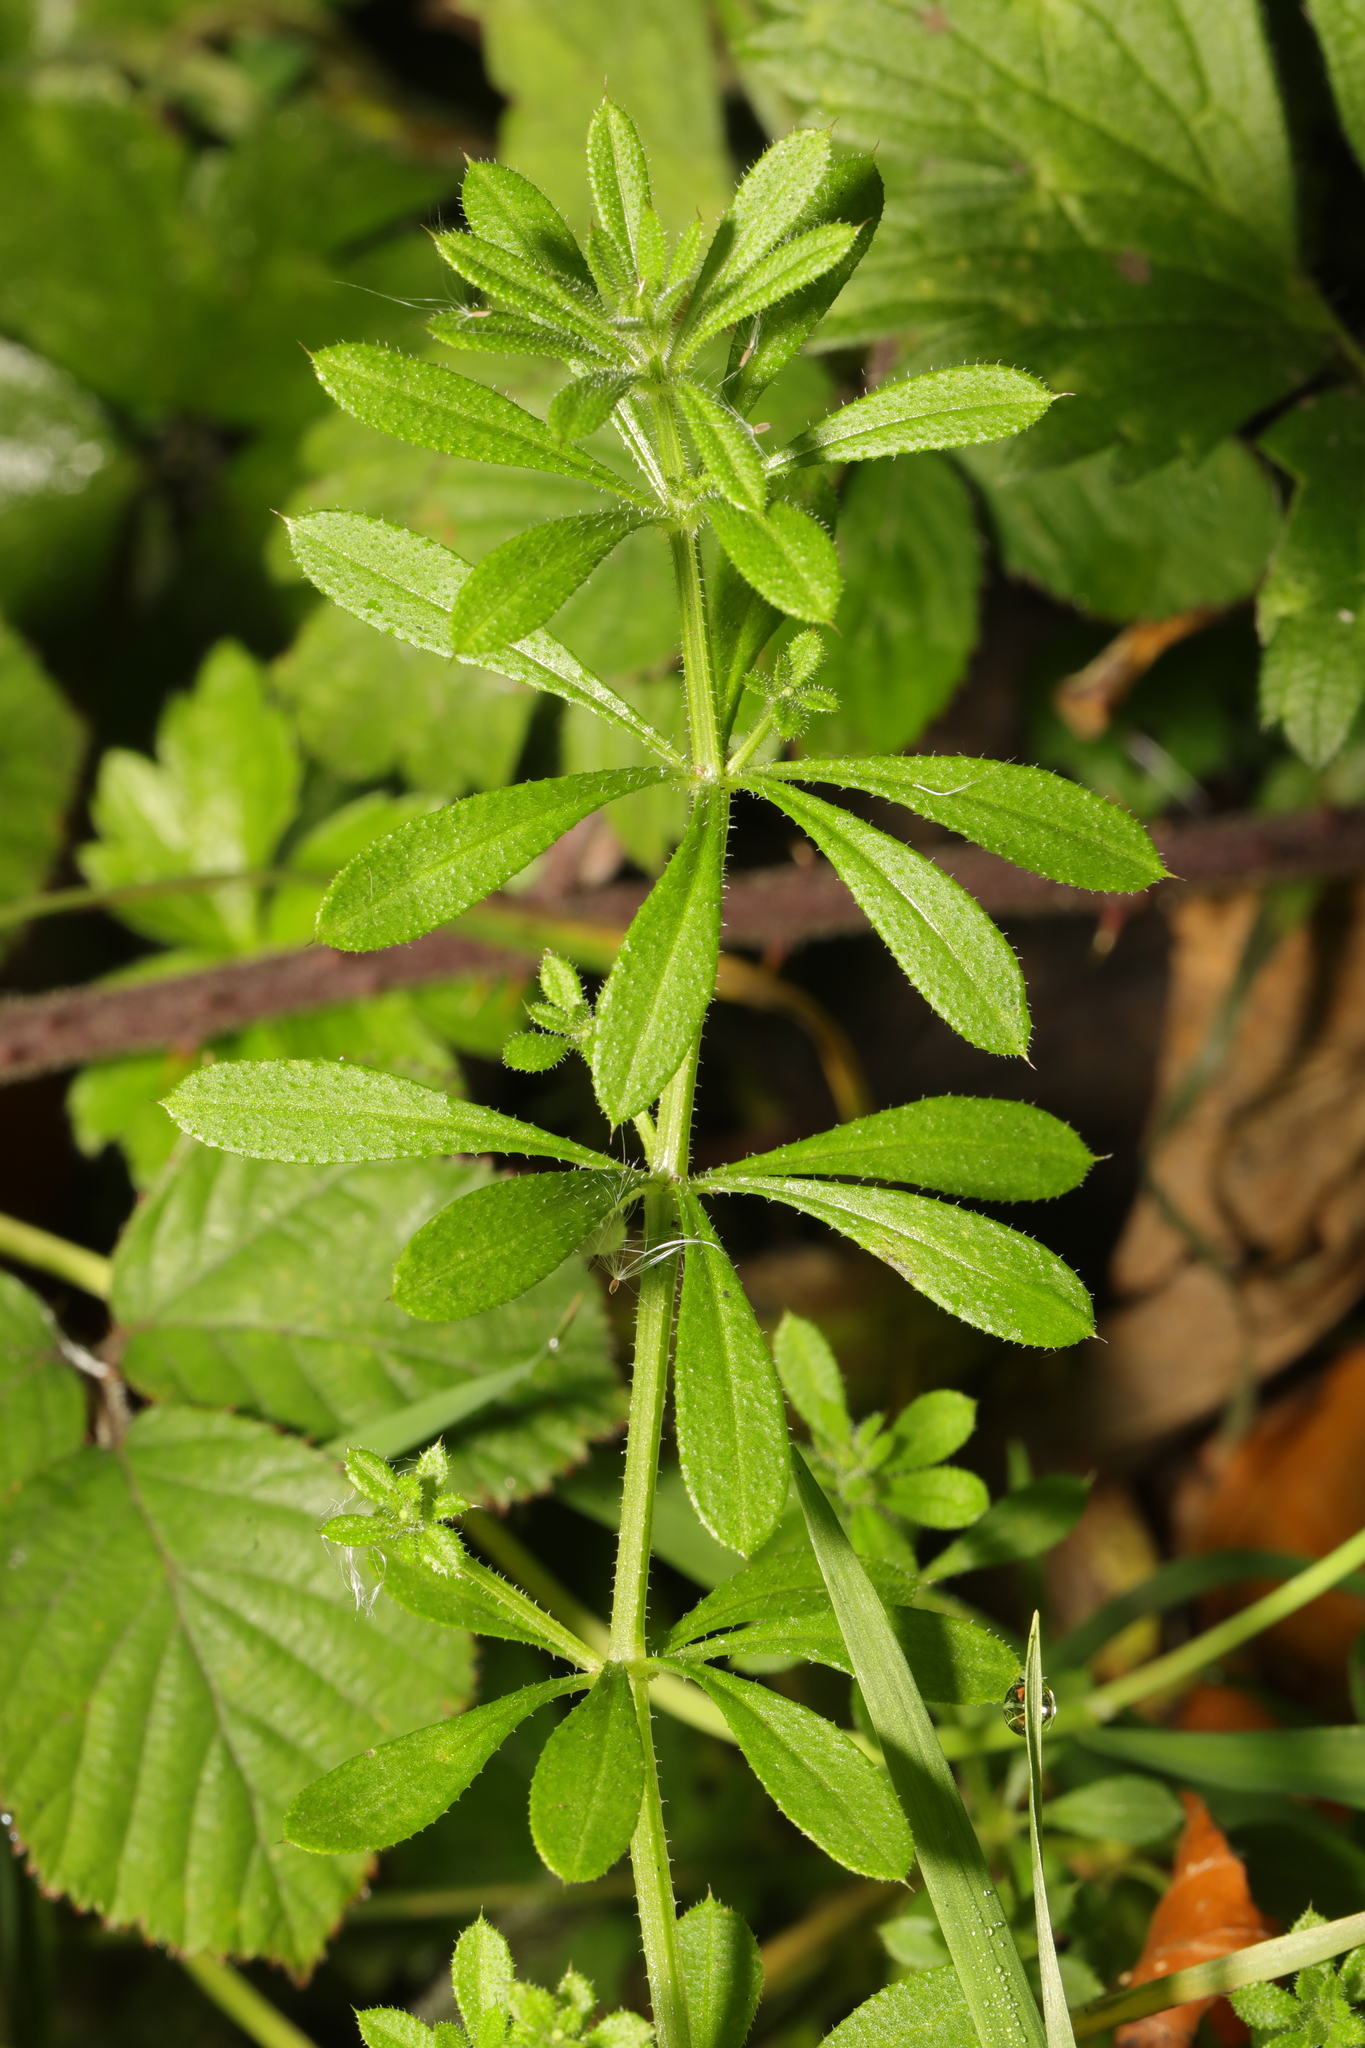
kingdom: Plantae
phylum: Tracheophyta
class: Magnoliopsida
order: Gentianales
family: Rubiaceae
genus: Galium
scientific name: Galium aparine
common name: Cleavers
